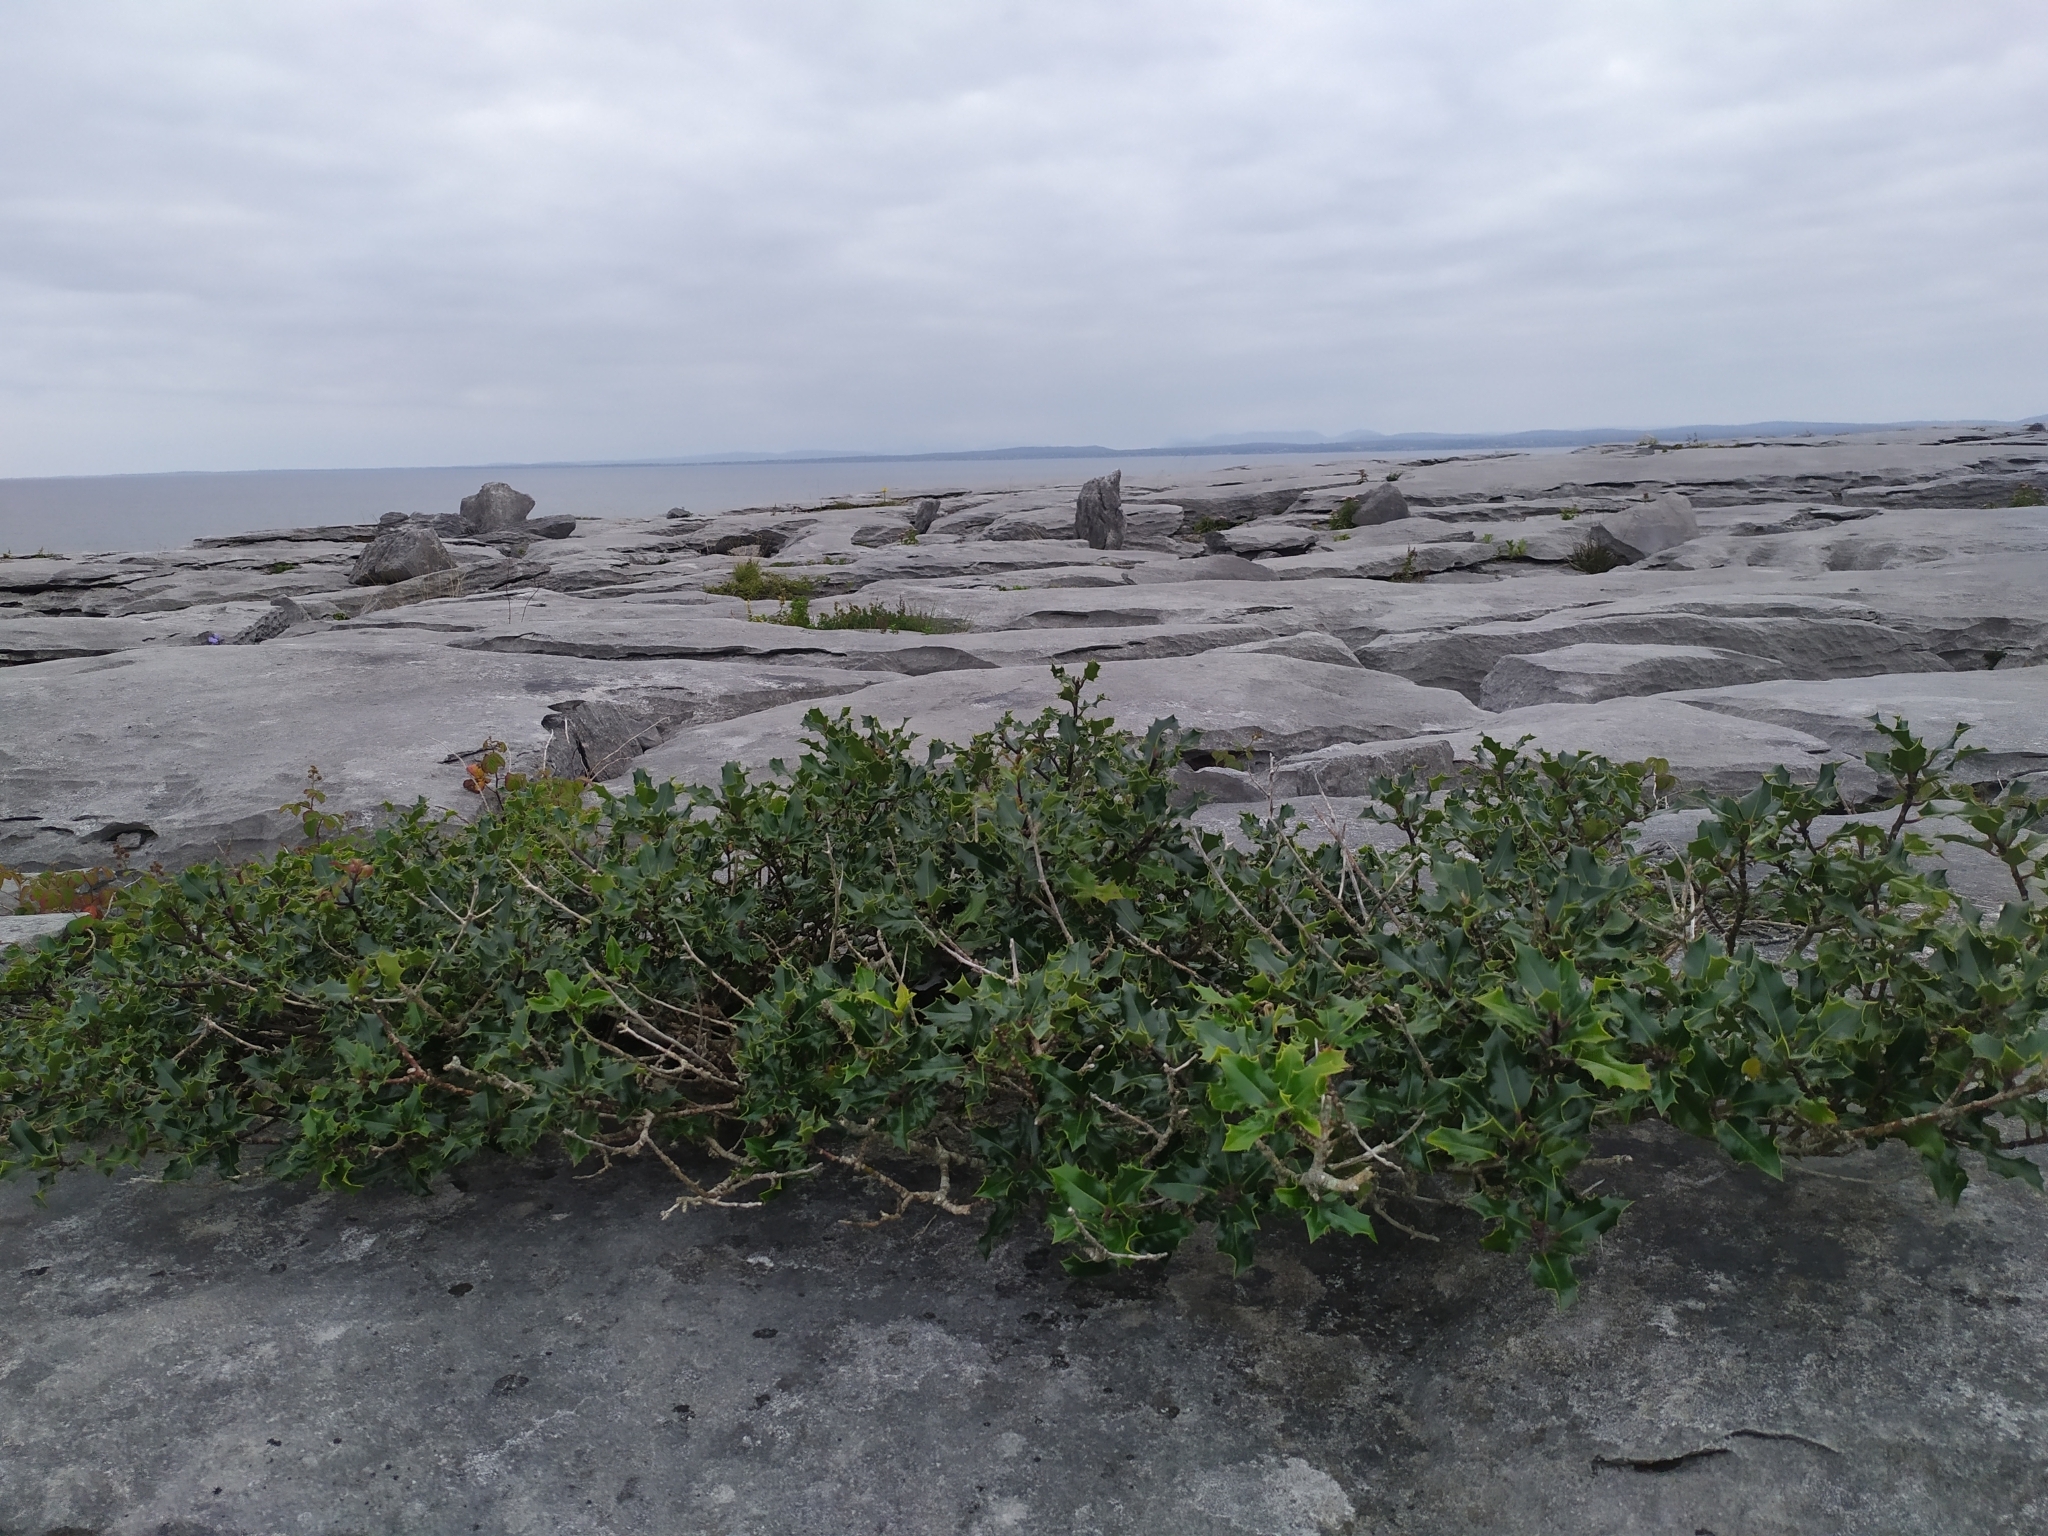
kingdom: Plantae
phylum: Tracheophyta
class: Magnoliopsida
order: Aquifoliales
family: Aquifoliaceae
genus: Ilex
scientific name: Ilex aquifolium
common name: English holly
